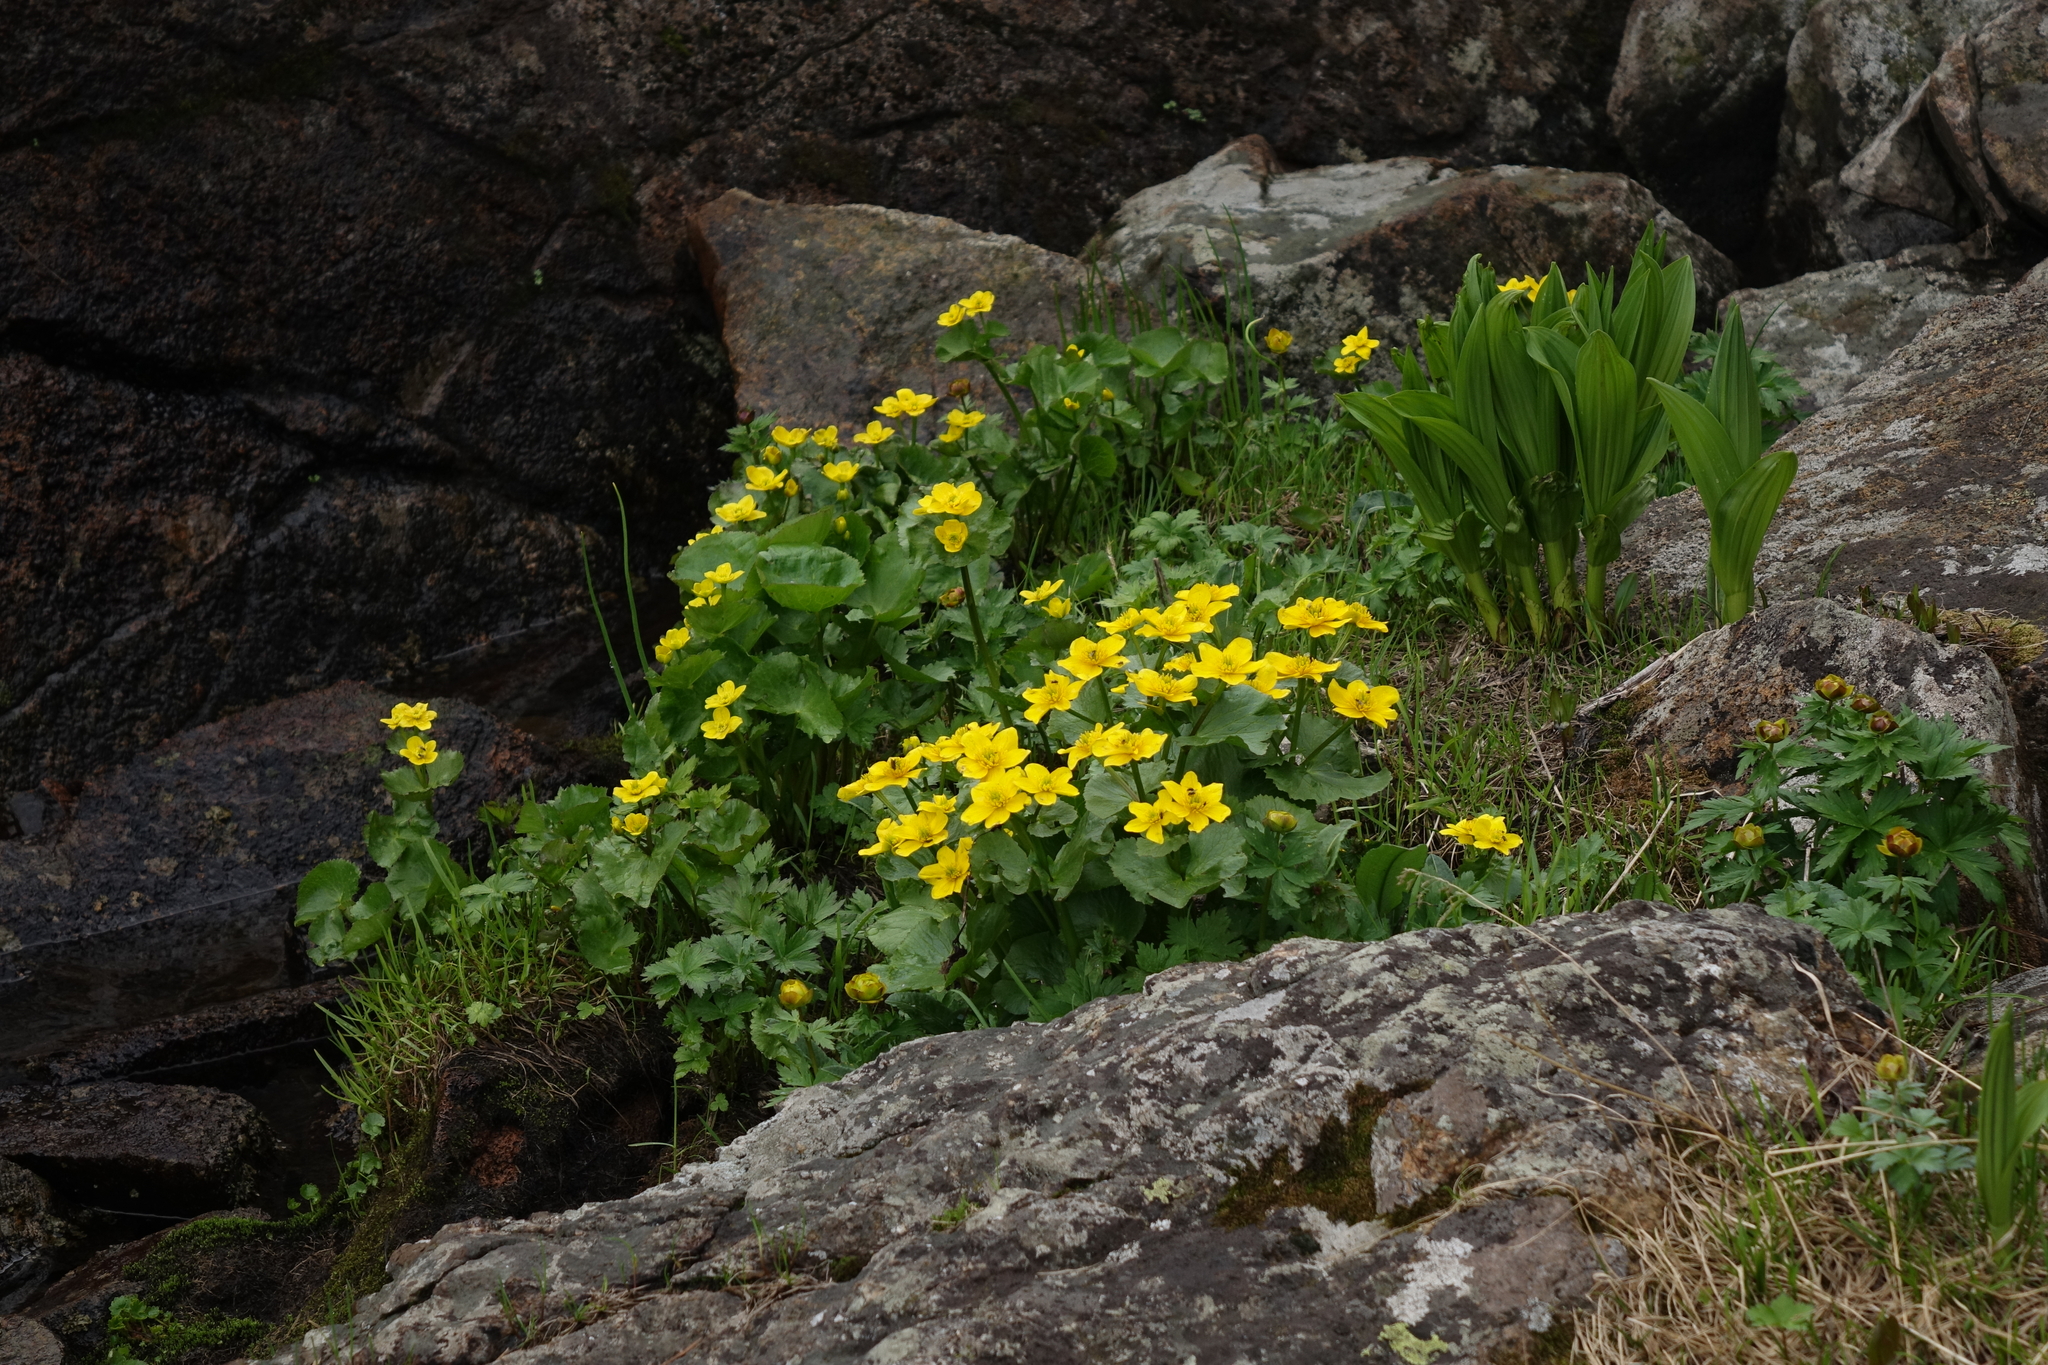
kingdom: Plantae
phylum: Tracheophyta
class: Magnoliopsida
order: Ranunculales
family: Ranunculaceae
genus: Caltha
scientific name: Caltha palustris
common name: Marsh marigold
